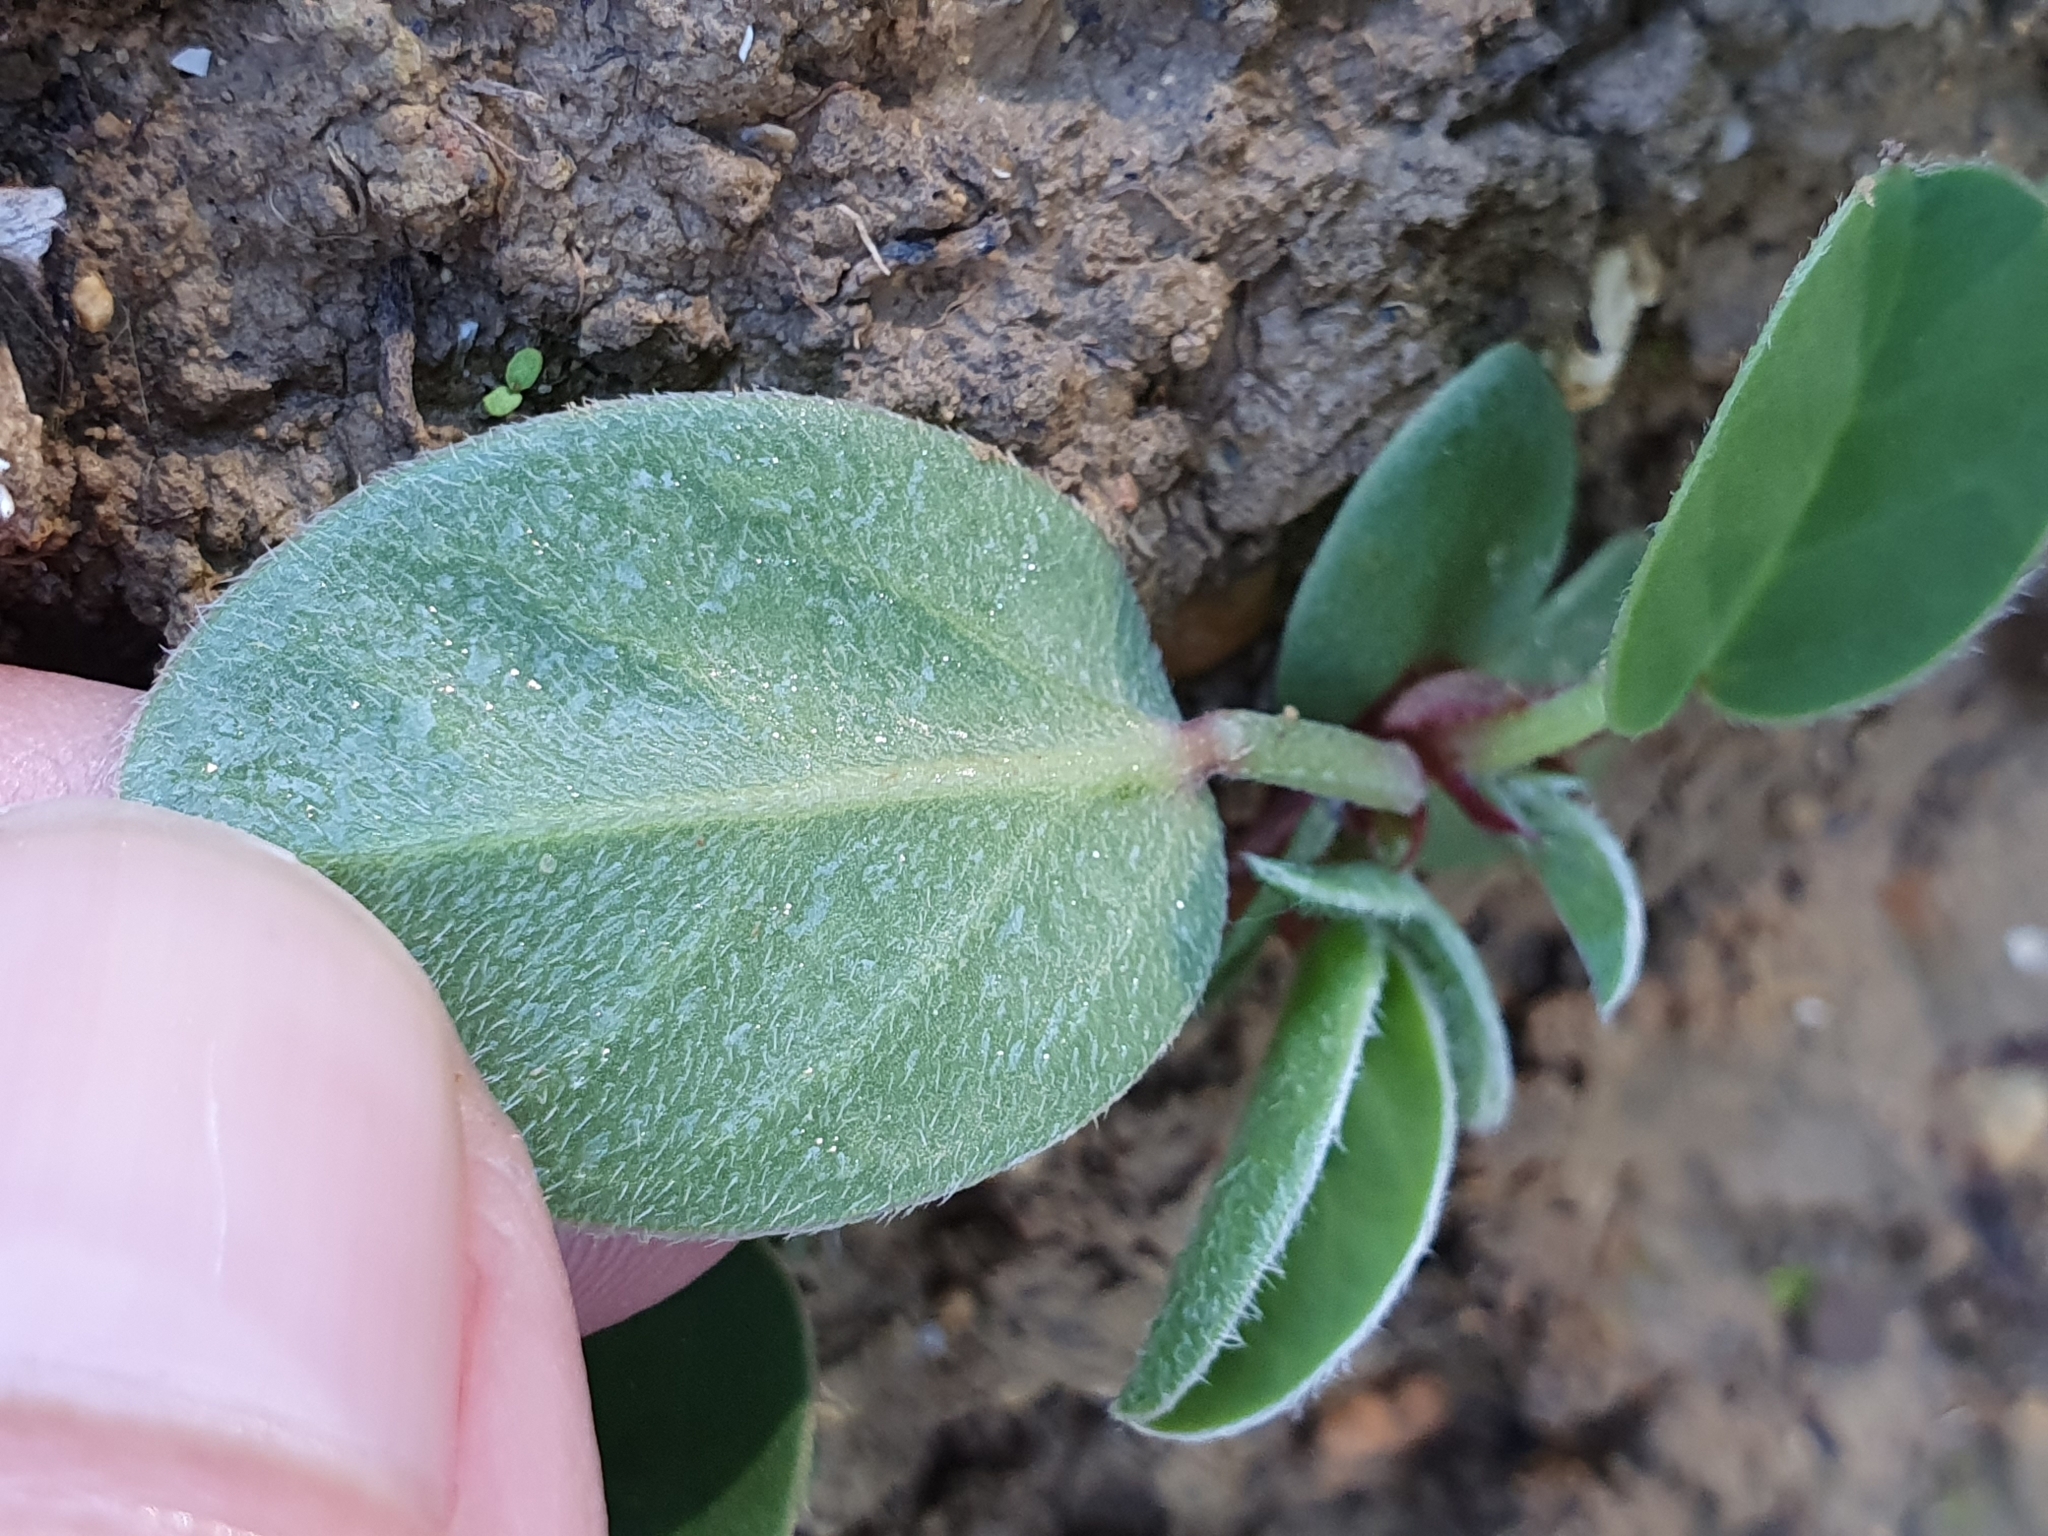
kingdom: Plantae
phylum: Tracheophyta
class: Magnoliopsida
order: Fabales
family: Fabaceae
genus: Sulla
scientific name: Sulla coronaria
